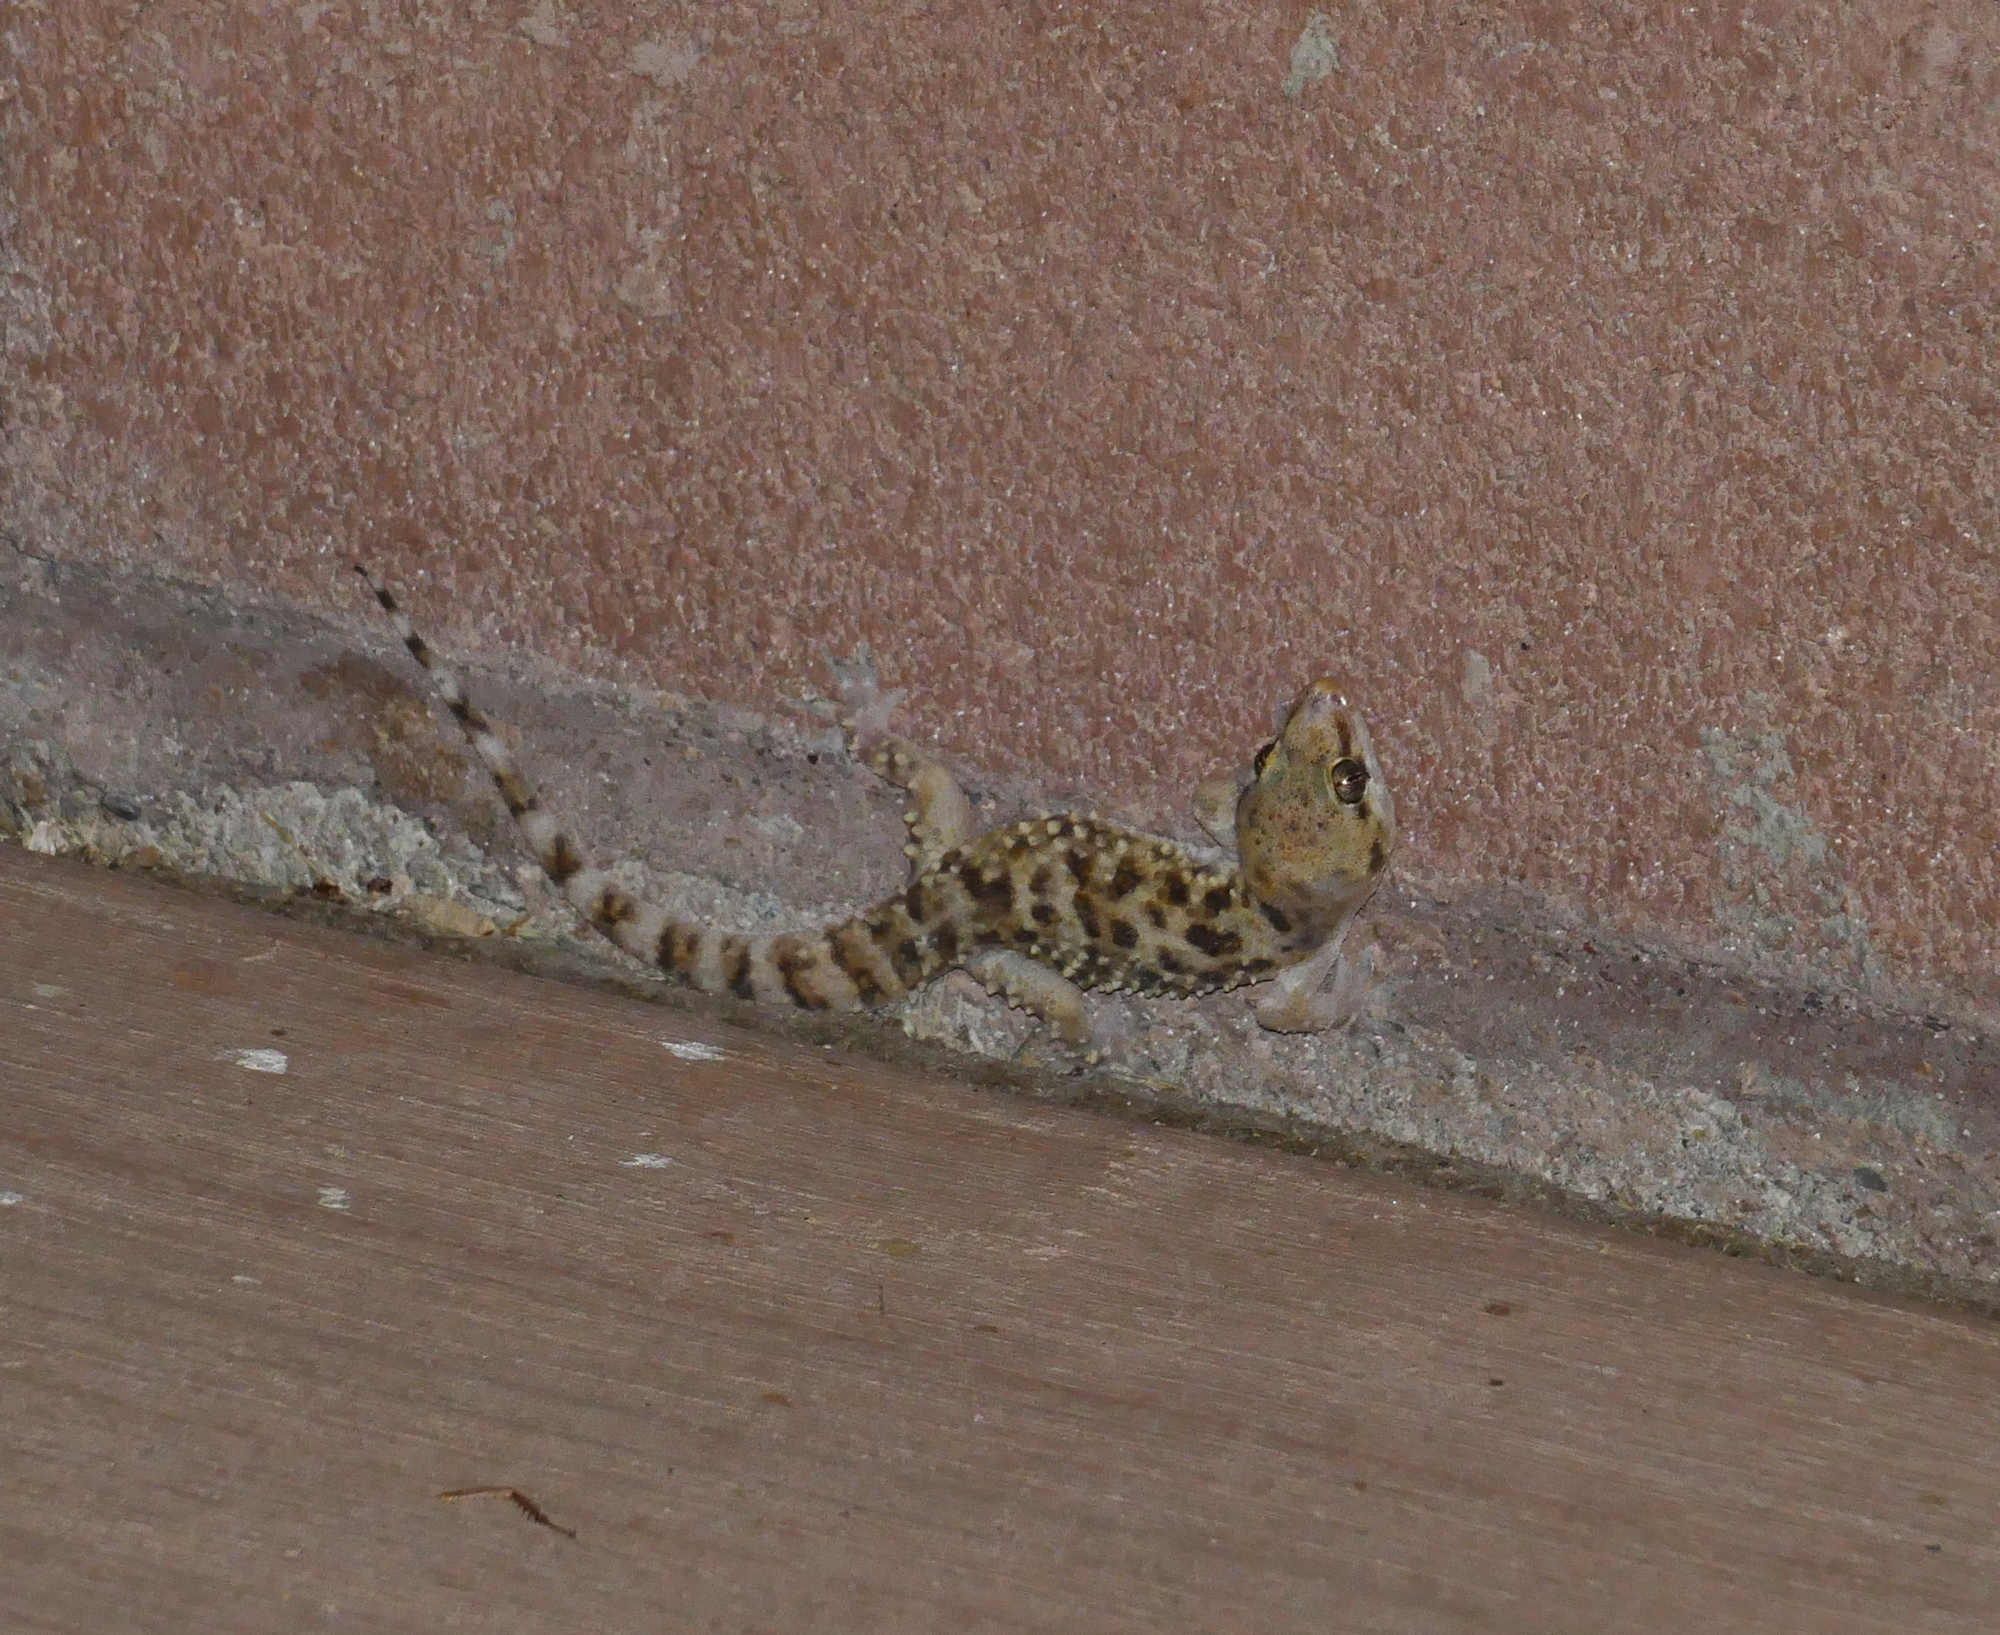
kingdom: Animalia
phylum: Chordata
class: Squamata
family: Gekkonidae
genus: Hemidactylus
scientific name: Hemidactylus turcicus
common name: Turkish gecko
